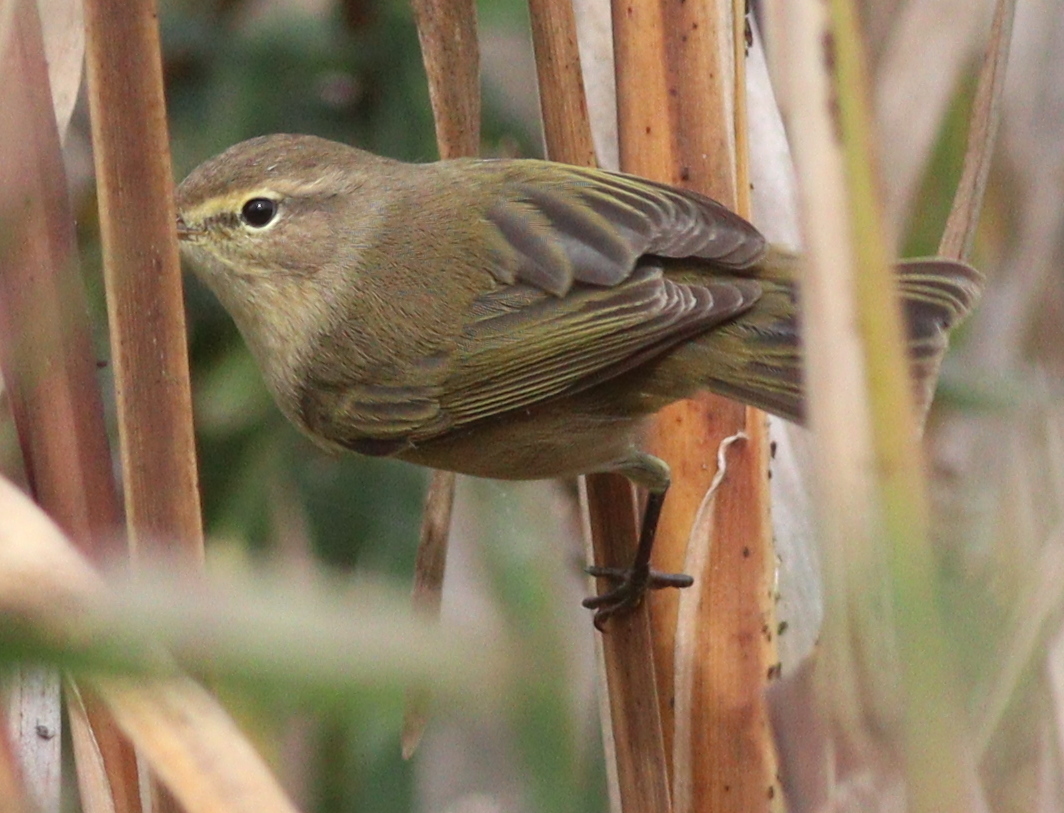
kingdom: Animalia
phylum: Chordata
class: Aves
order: Passeriformes
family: Phylloscopidae
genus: Phylloscopus
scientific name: Phylloscopus collybita
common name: Common chiffchaff
